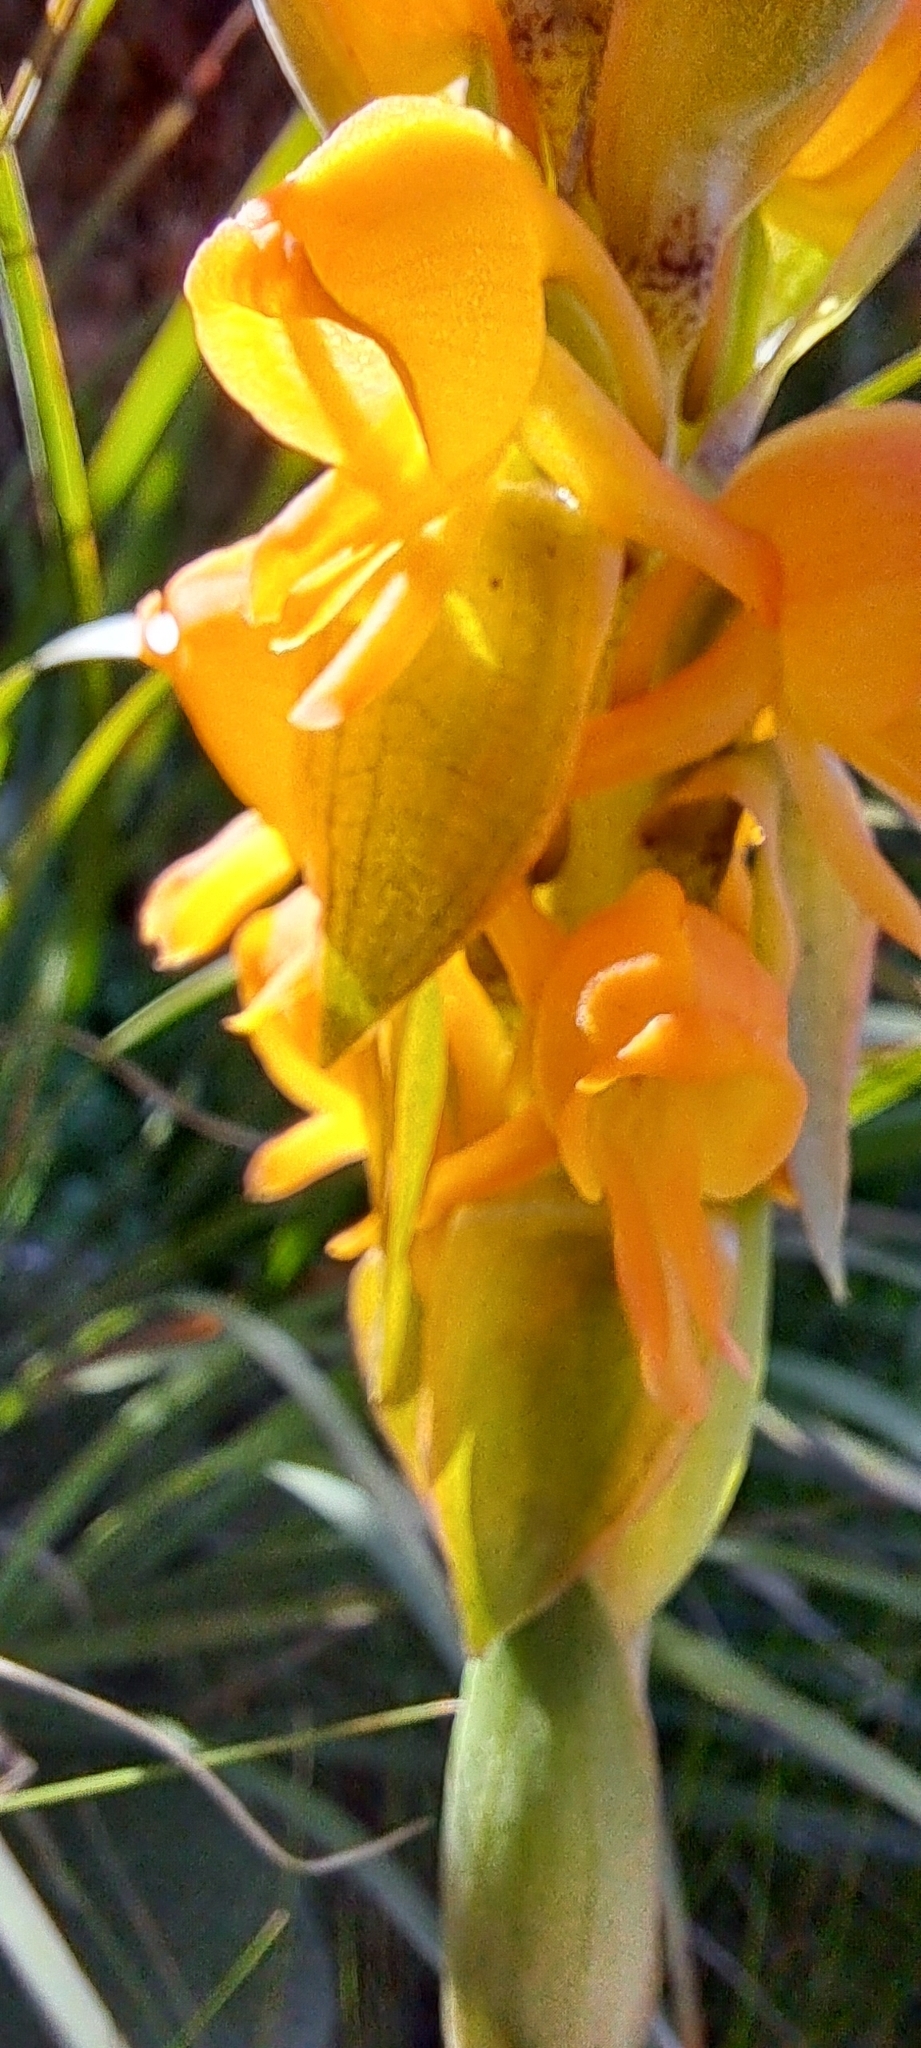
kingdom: Plantae
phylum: Tracheophyta
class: Liliopsida
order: Asparagales
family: Orchidaceae
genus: Satyrium
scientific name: Satyrium coriifolium
